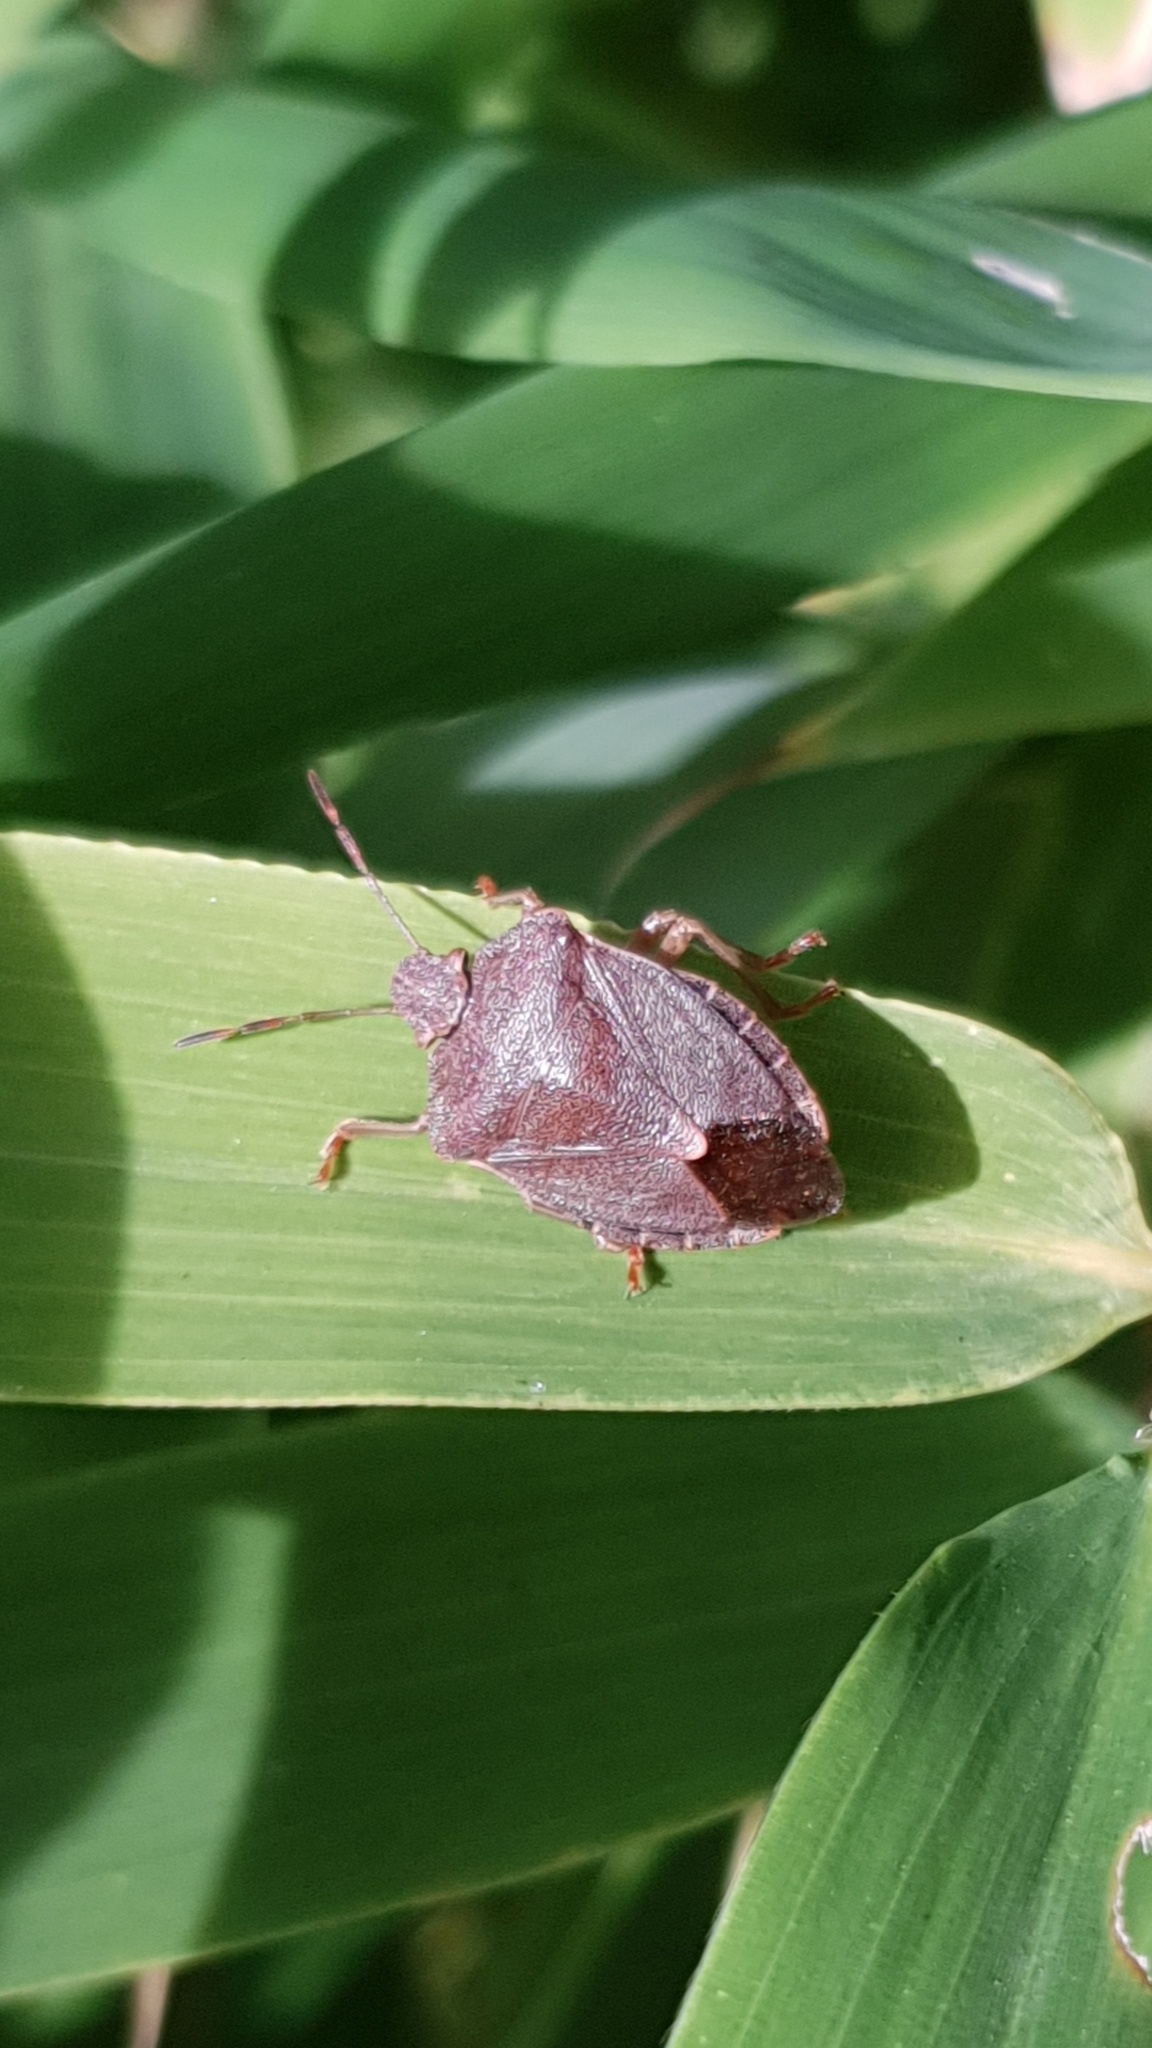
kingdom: Animalia
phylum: Arthropoda
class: Insecta
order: Hemiptera
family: Pentatomidae
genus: Palomena
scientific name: Palomena prasina
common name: Green shieldbug
